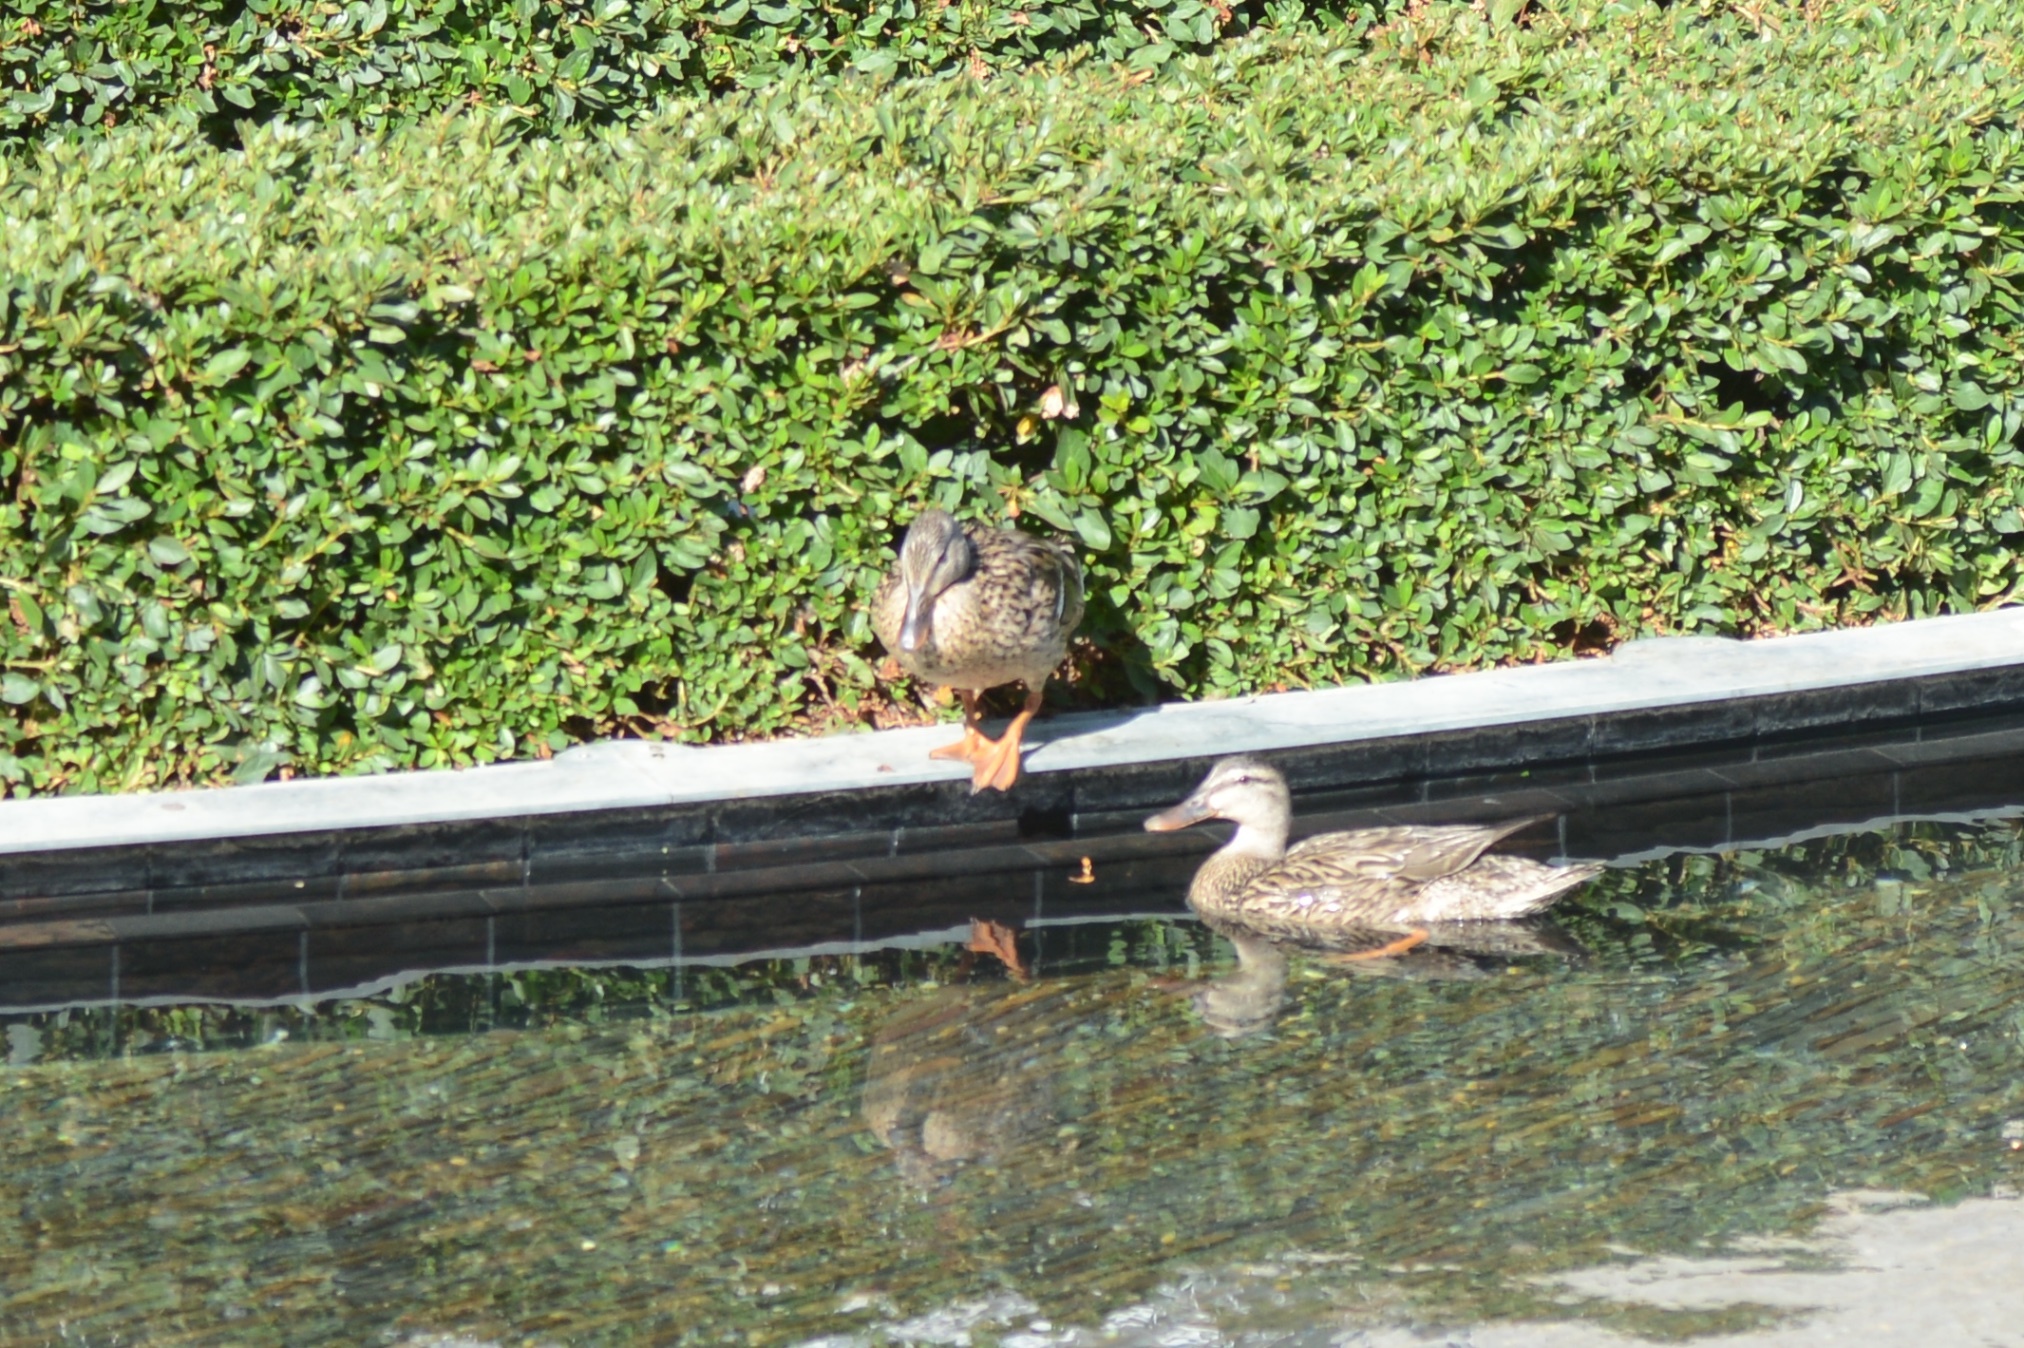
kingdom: Animalia
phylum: Chordata
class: Aves
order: Anseriformes
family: Anatidae
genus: Anas
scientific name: Anas platyrhynchos
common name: Mallard
